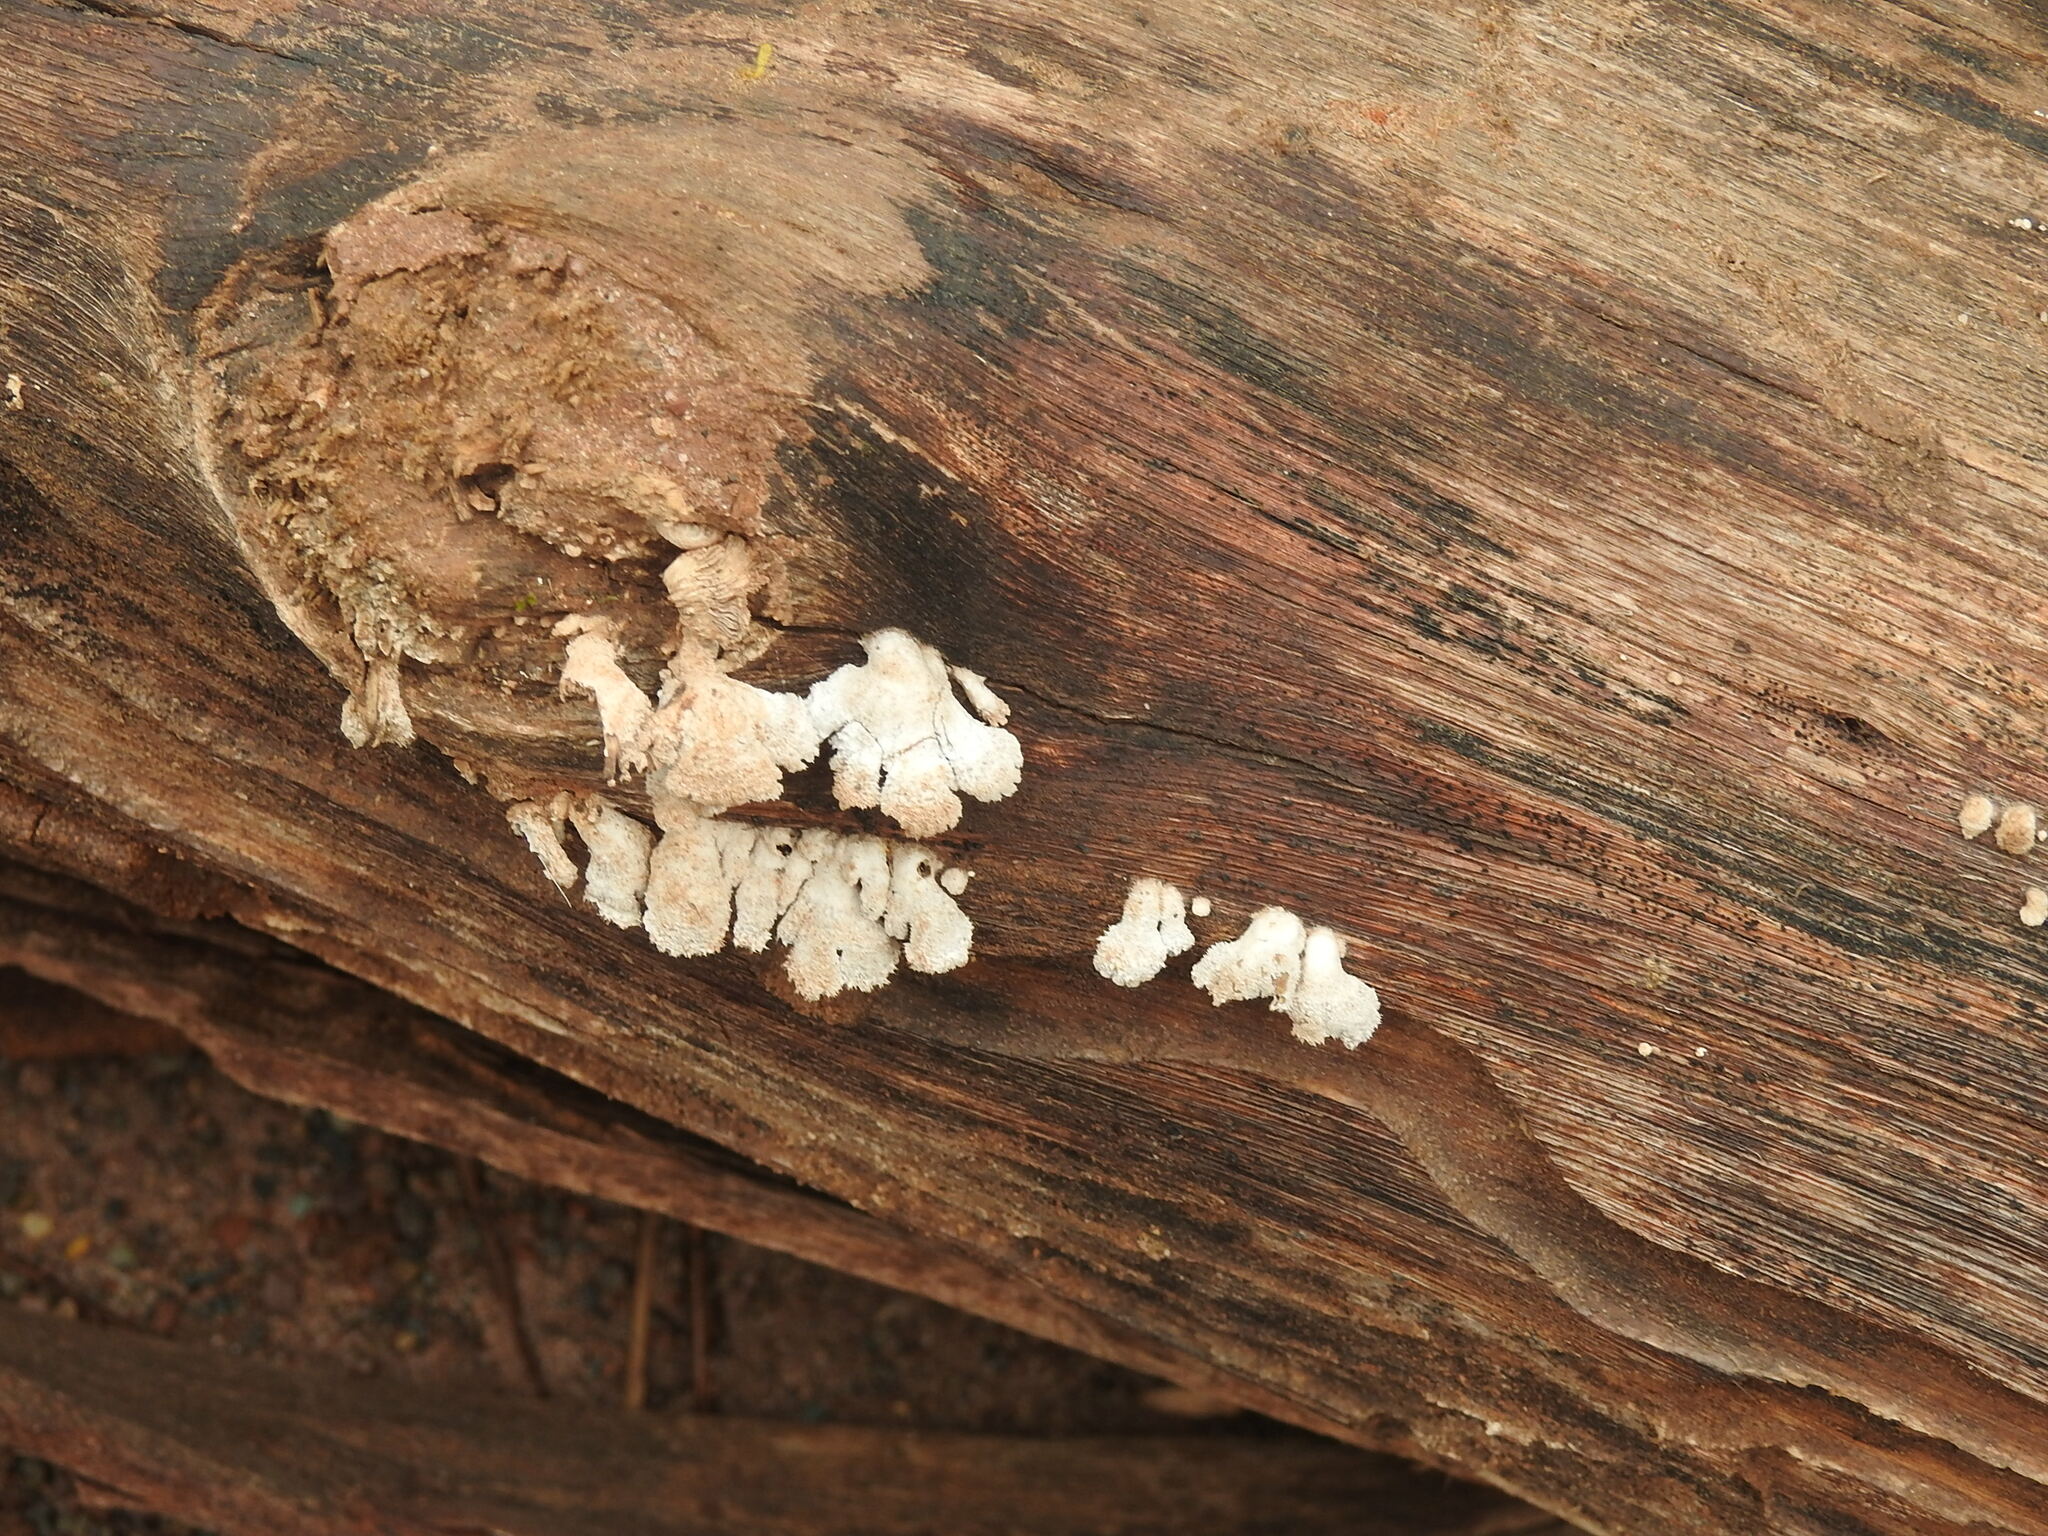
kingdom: Fungi
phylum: Basidiomycota
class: Agaricomycetes
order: Agaricales
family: Schizophyllaceae
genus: Schizophyllum
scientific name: Schizophyllum commune
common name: Common porecrust
